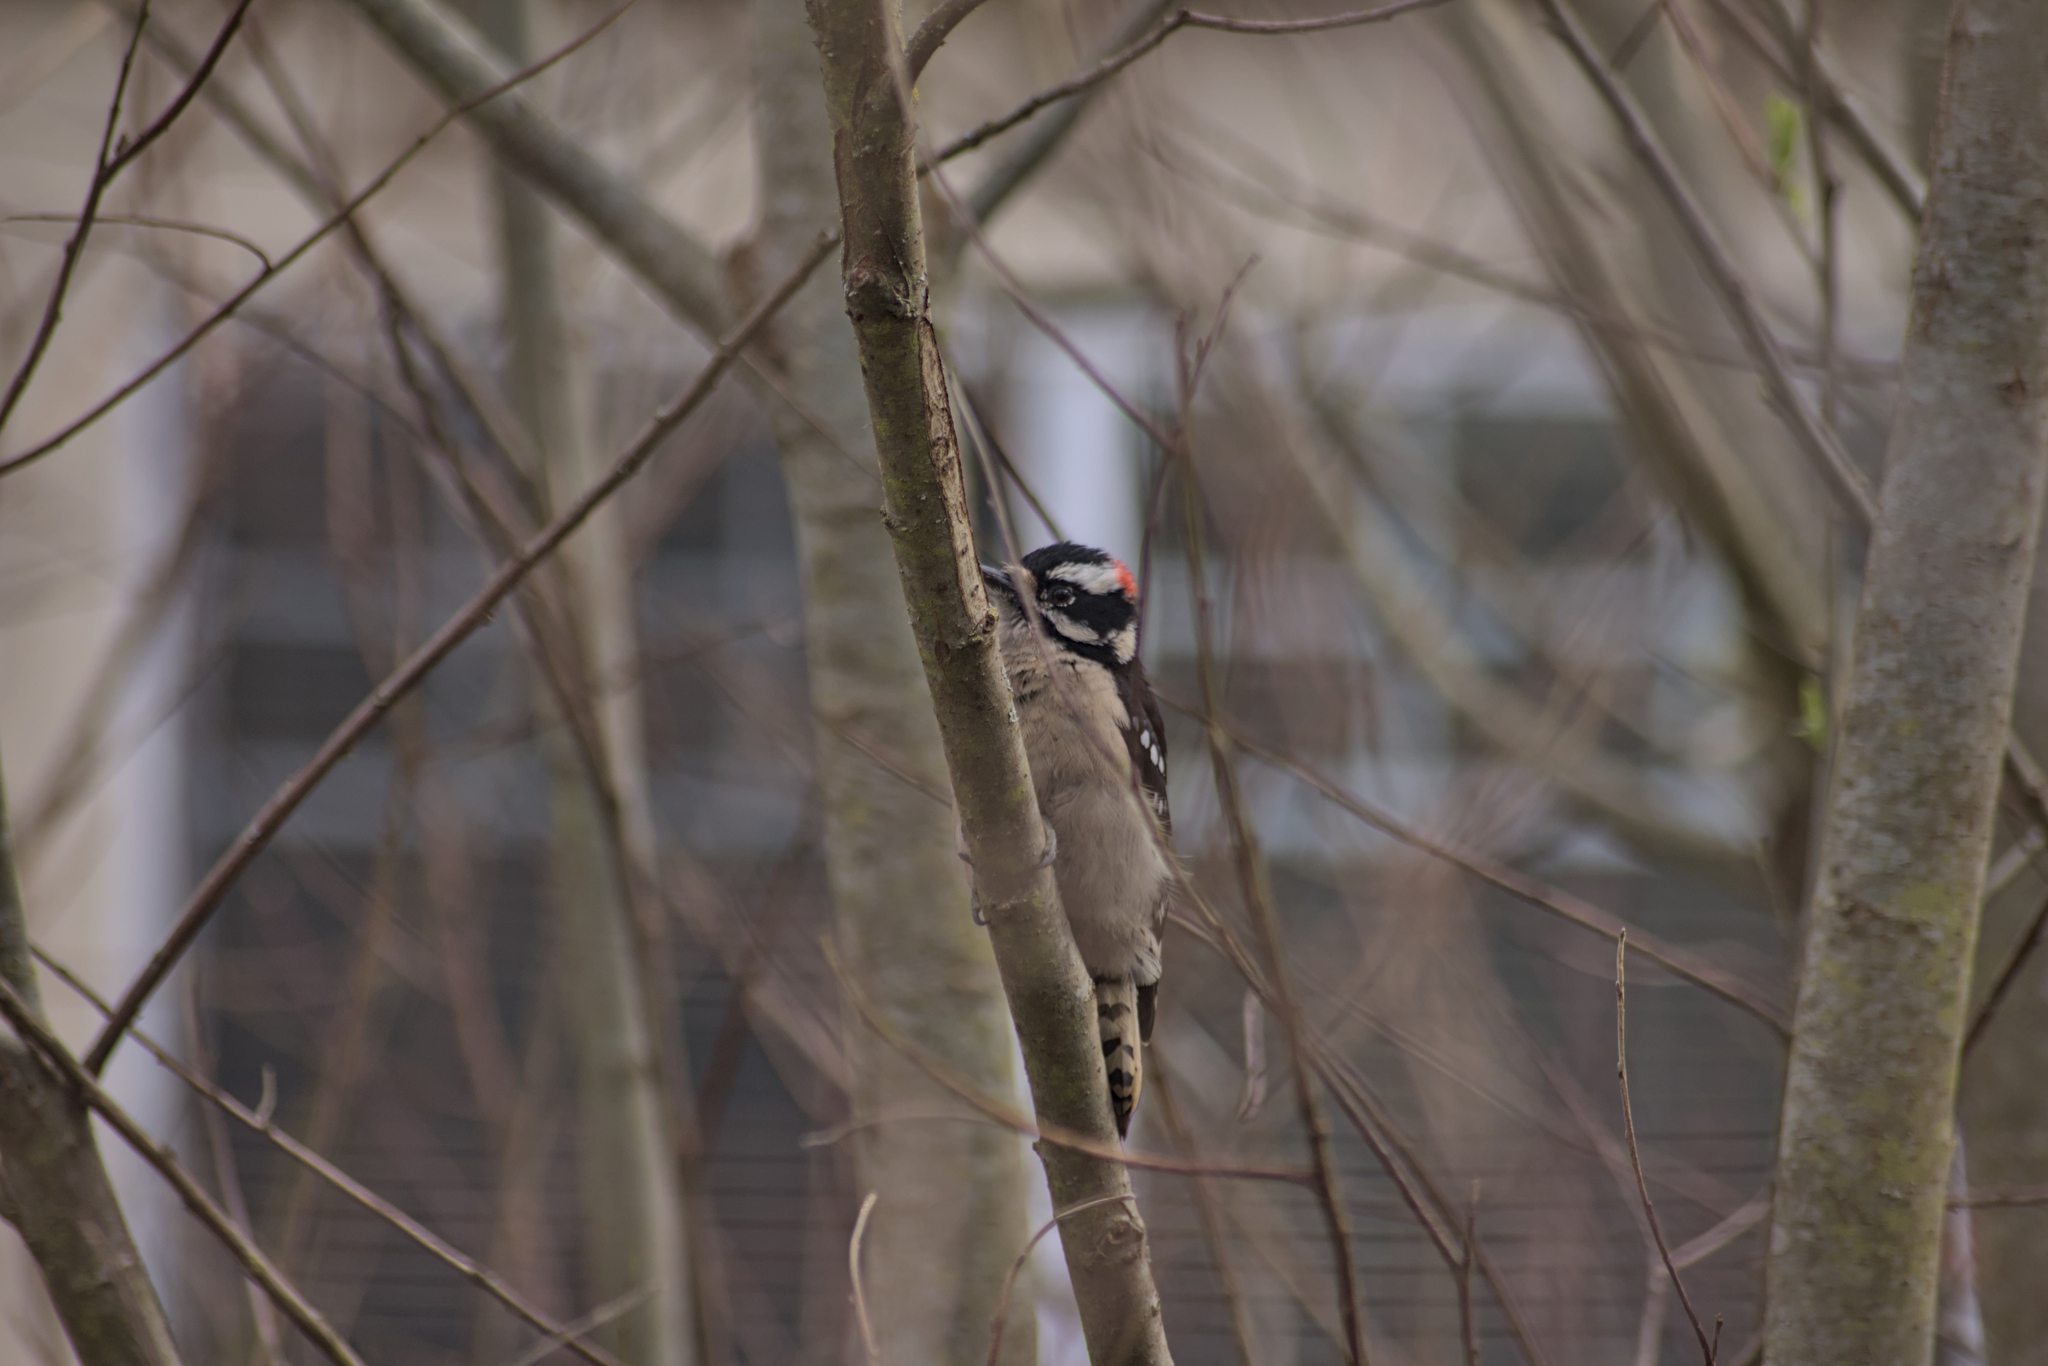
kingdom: Animalia
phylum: Chordata
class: Aves
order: Piciformes
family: Picidae
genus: Dryobates
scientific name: Dryobates pubescens
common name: Downy woodpecker
